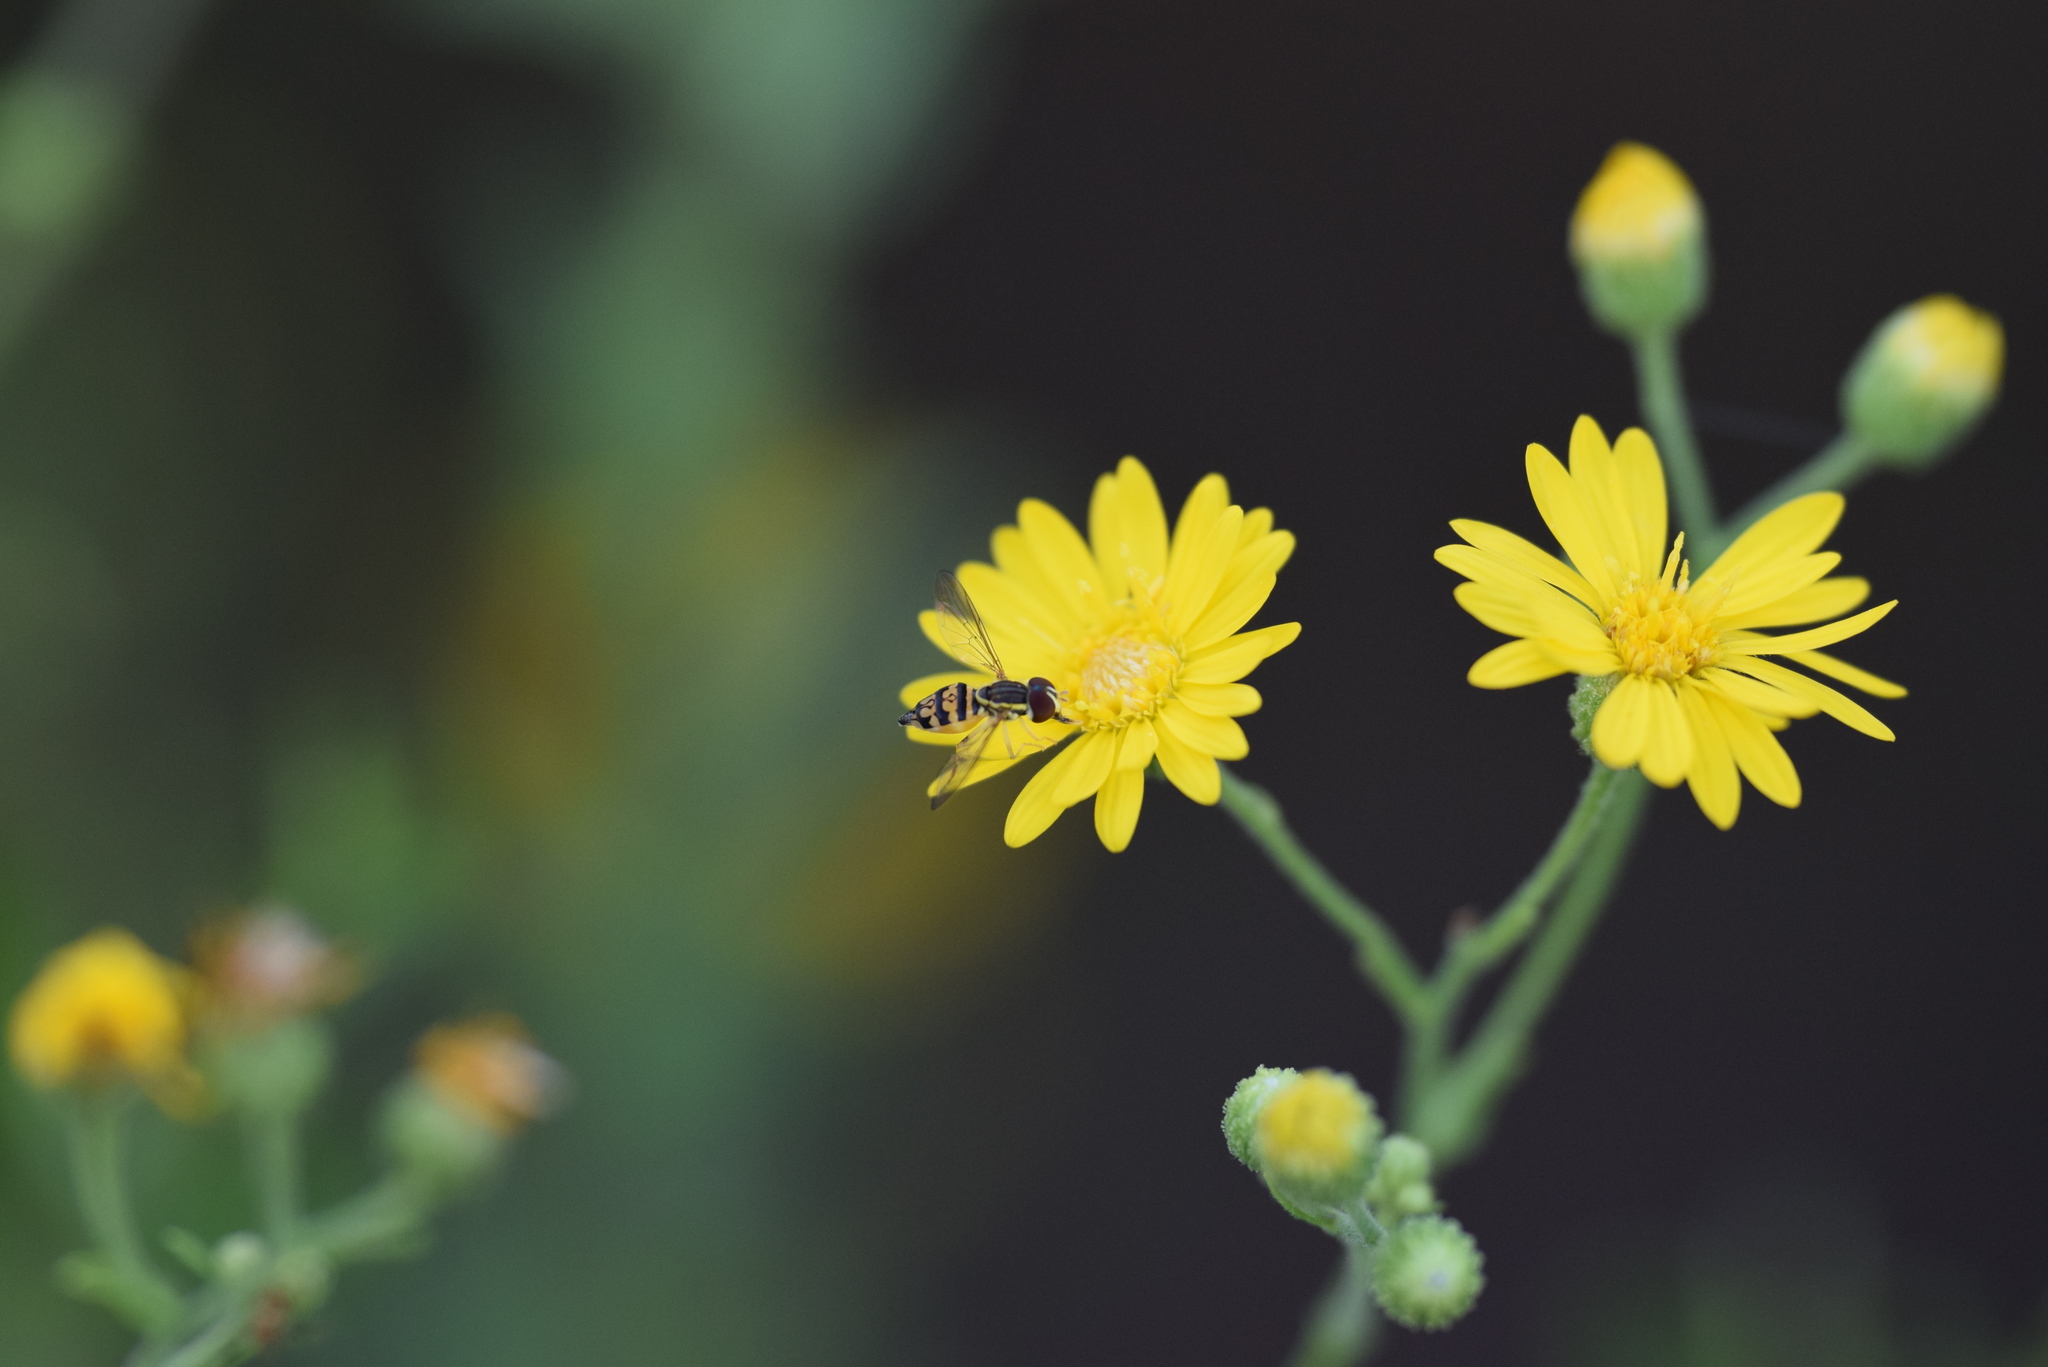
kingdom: Animalia
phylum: Arthropoda
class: Insecta
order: Diptera
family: Syrphidae
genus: Toxomerus
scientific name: Toxomerus geminatus
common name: Eastern calligrapher
